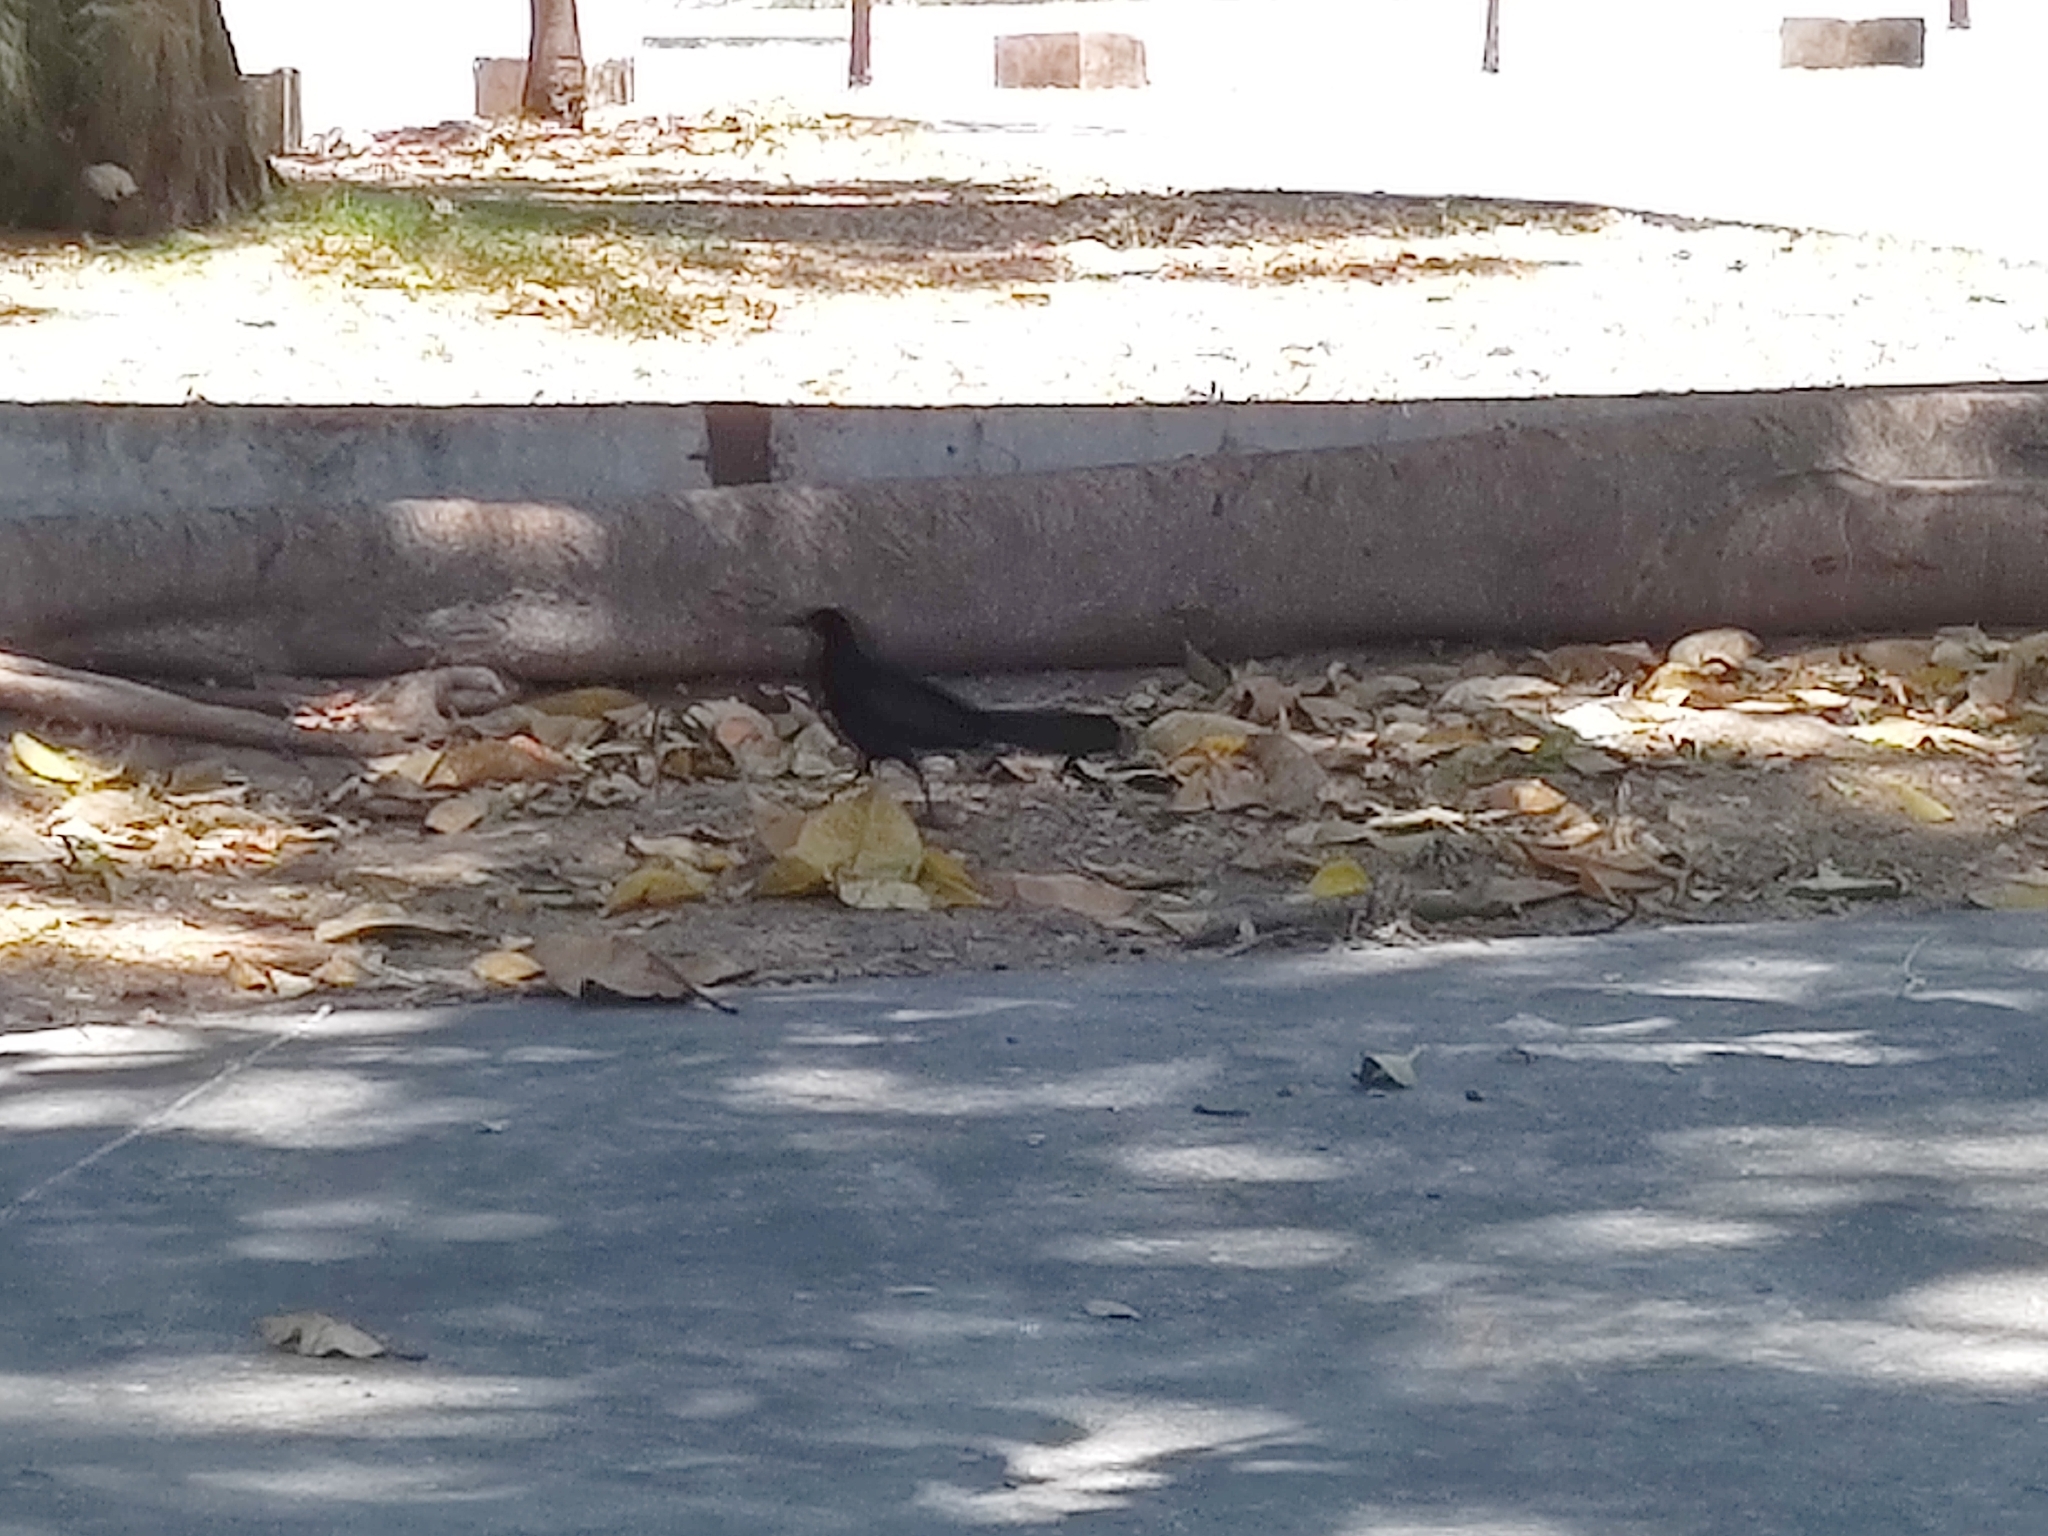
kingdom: Animalia
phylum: Chordata
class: Aves
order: Passeriformes
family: Icteridae
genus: Quiscalus
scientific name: Quiscalus mexicanus
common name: Great-tailed grackle
